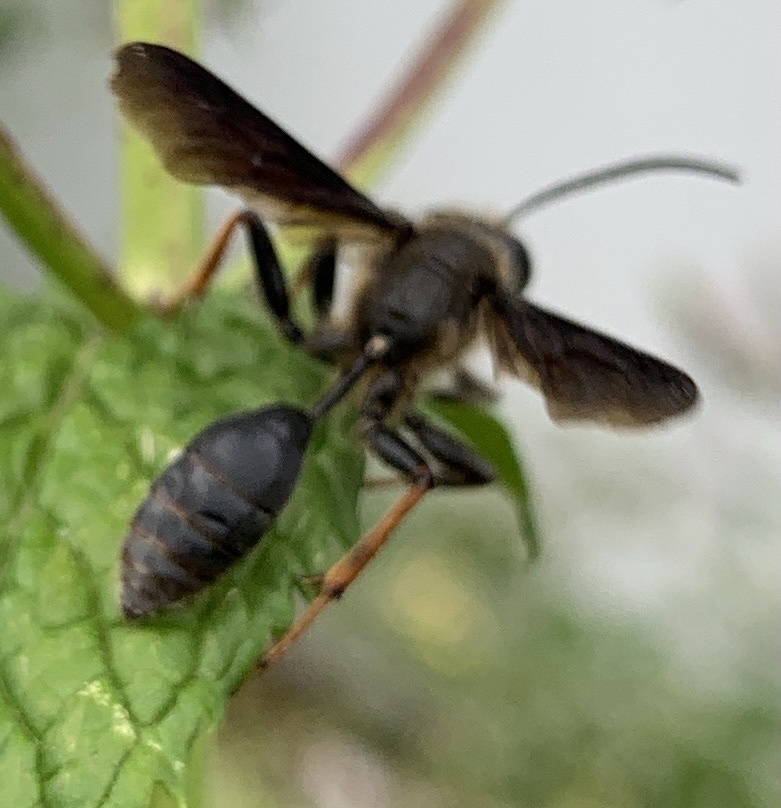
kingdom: Animalia
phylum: Arthropoda
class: Insecta
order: Hymenoptera
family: Sphecidae
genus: Isodontia
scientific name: Isodontia auripes
